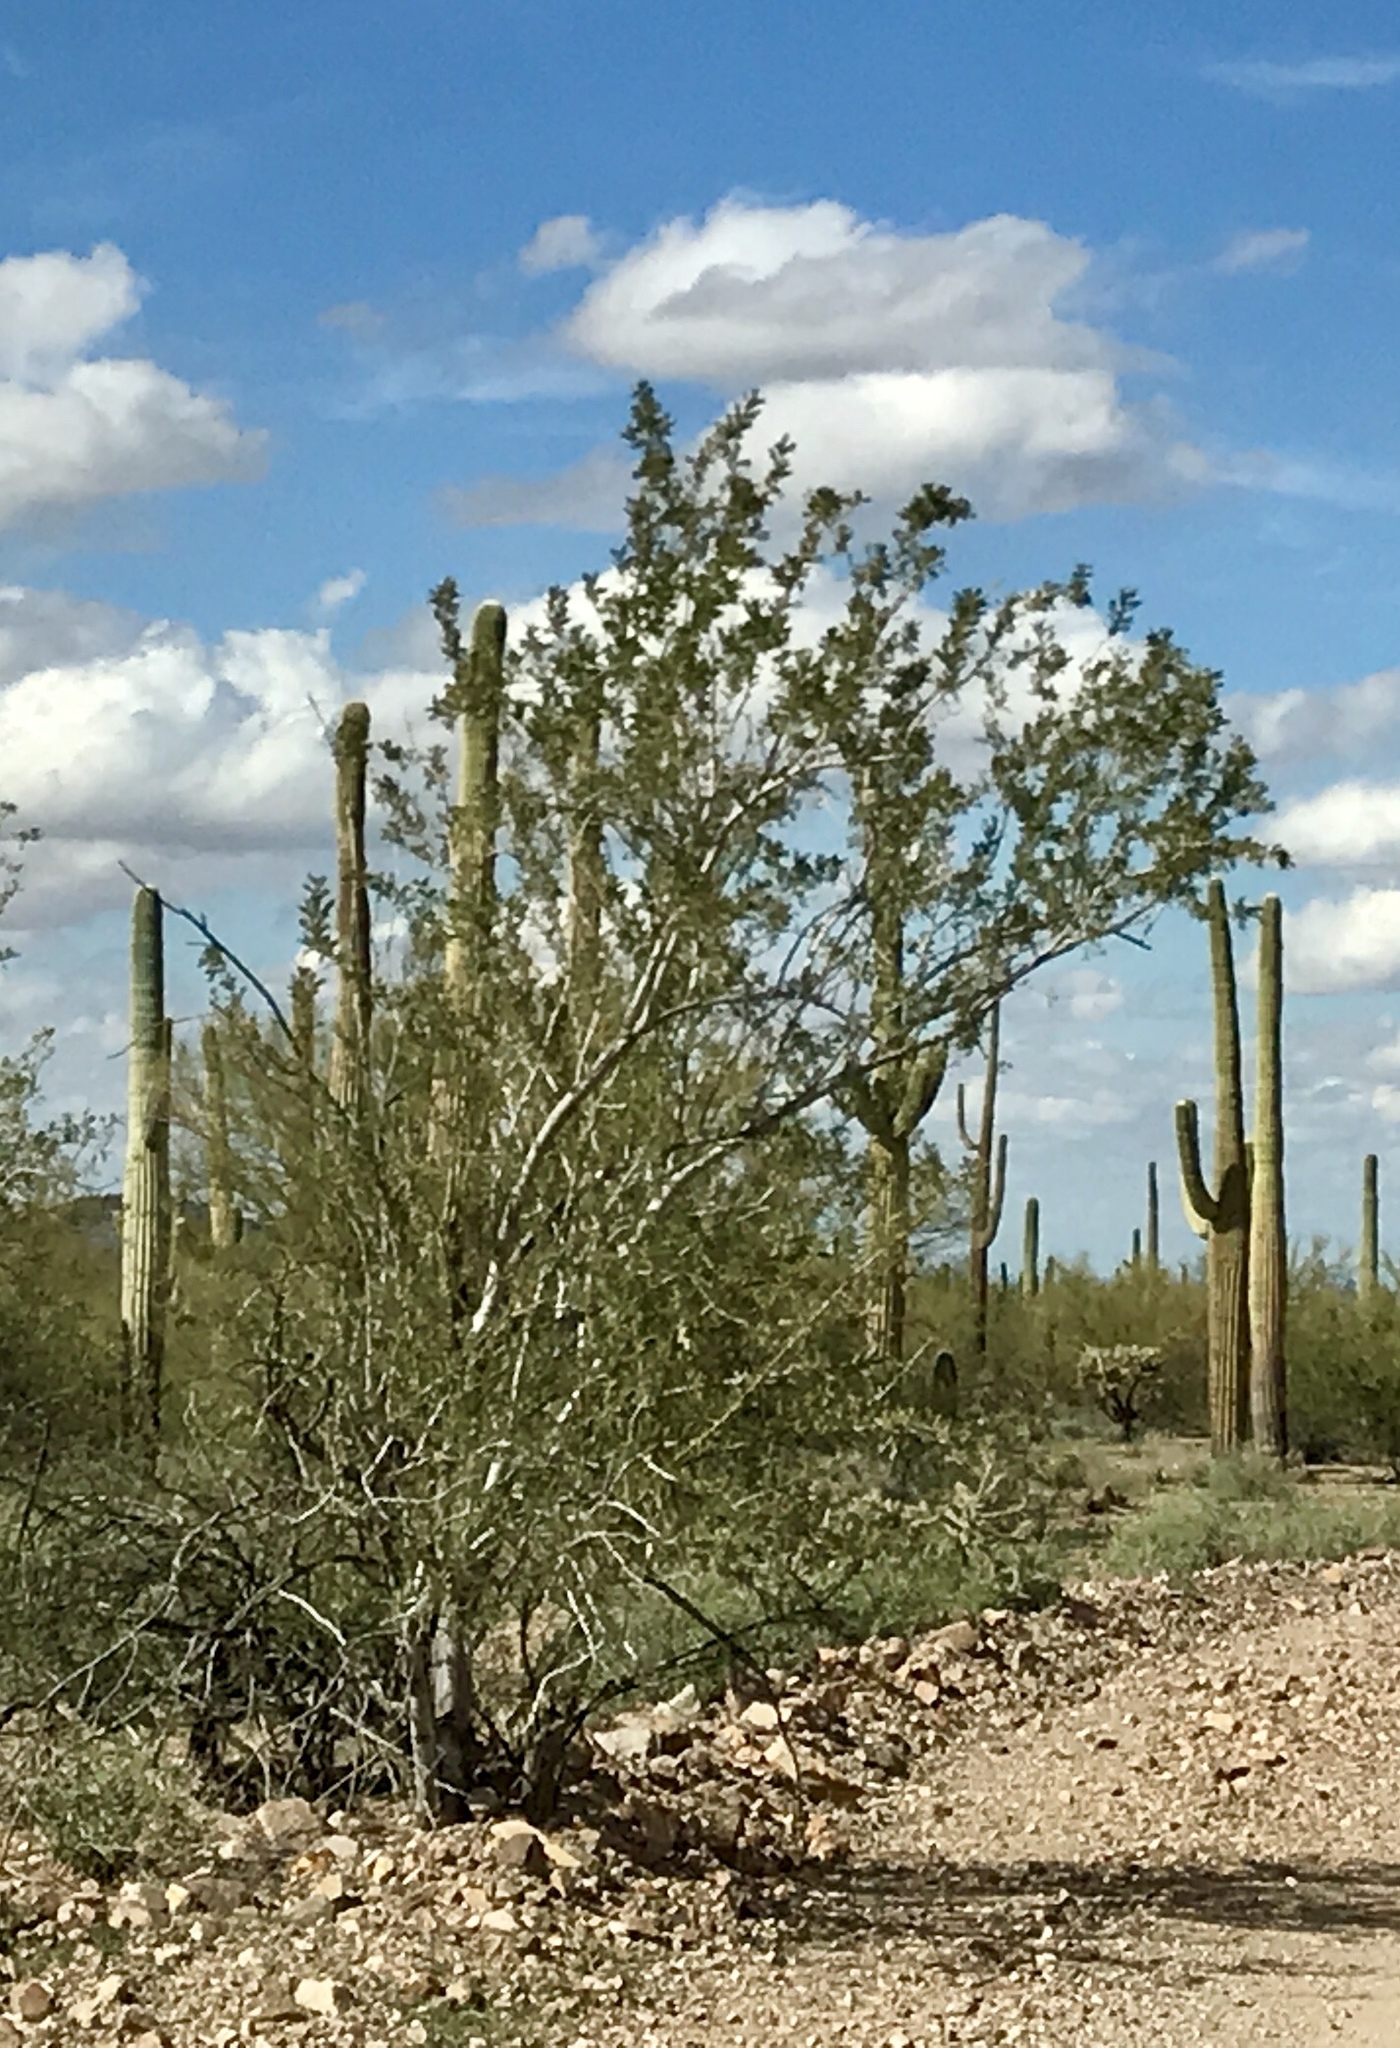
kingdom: Plantae
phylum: Tracheophyta
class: Magnoliopsida
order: Fabales
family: Fabaceae
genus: Olneya
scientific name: Olneya tesota
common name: Desert ironwood
